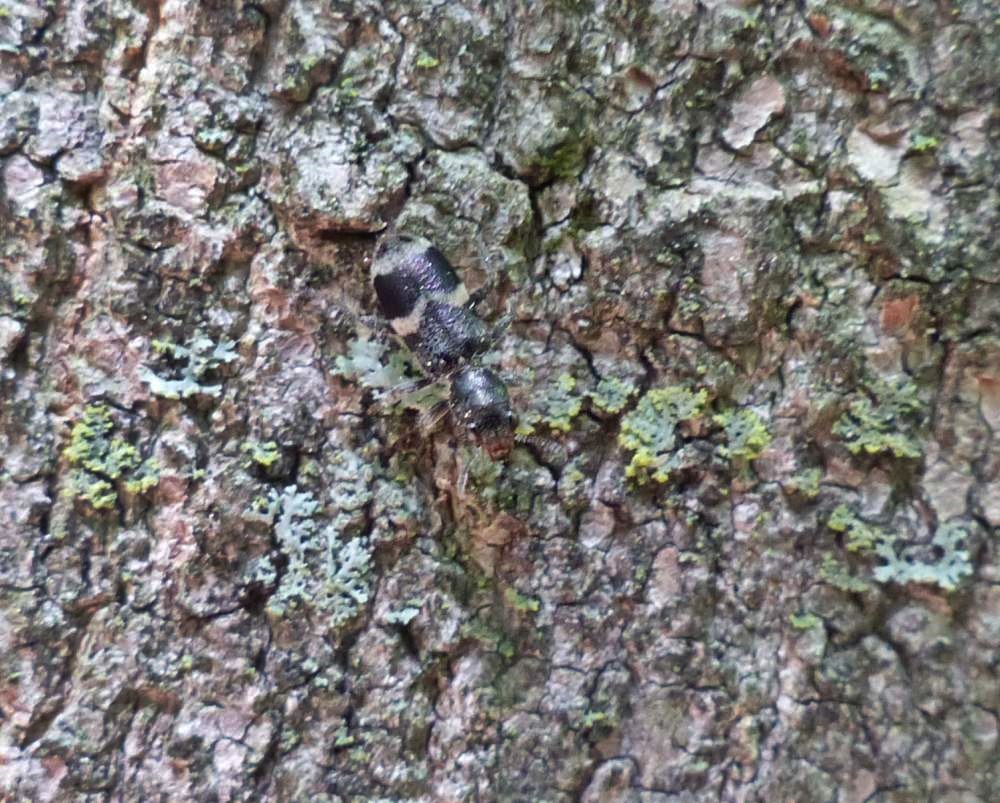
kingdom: Animalia
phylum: Arthropoda
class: Insecta
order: Coleoptera
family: Cleridae
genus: Enoclerus
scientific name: Enoclerus nigripes
